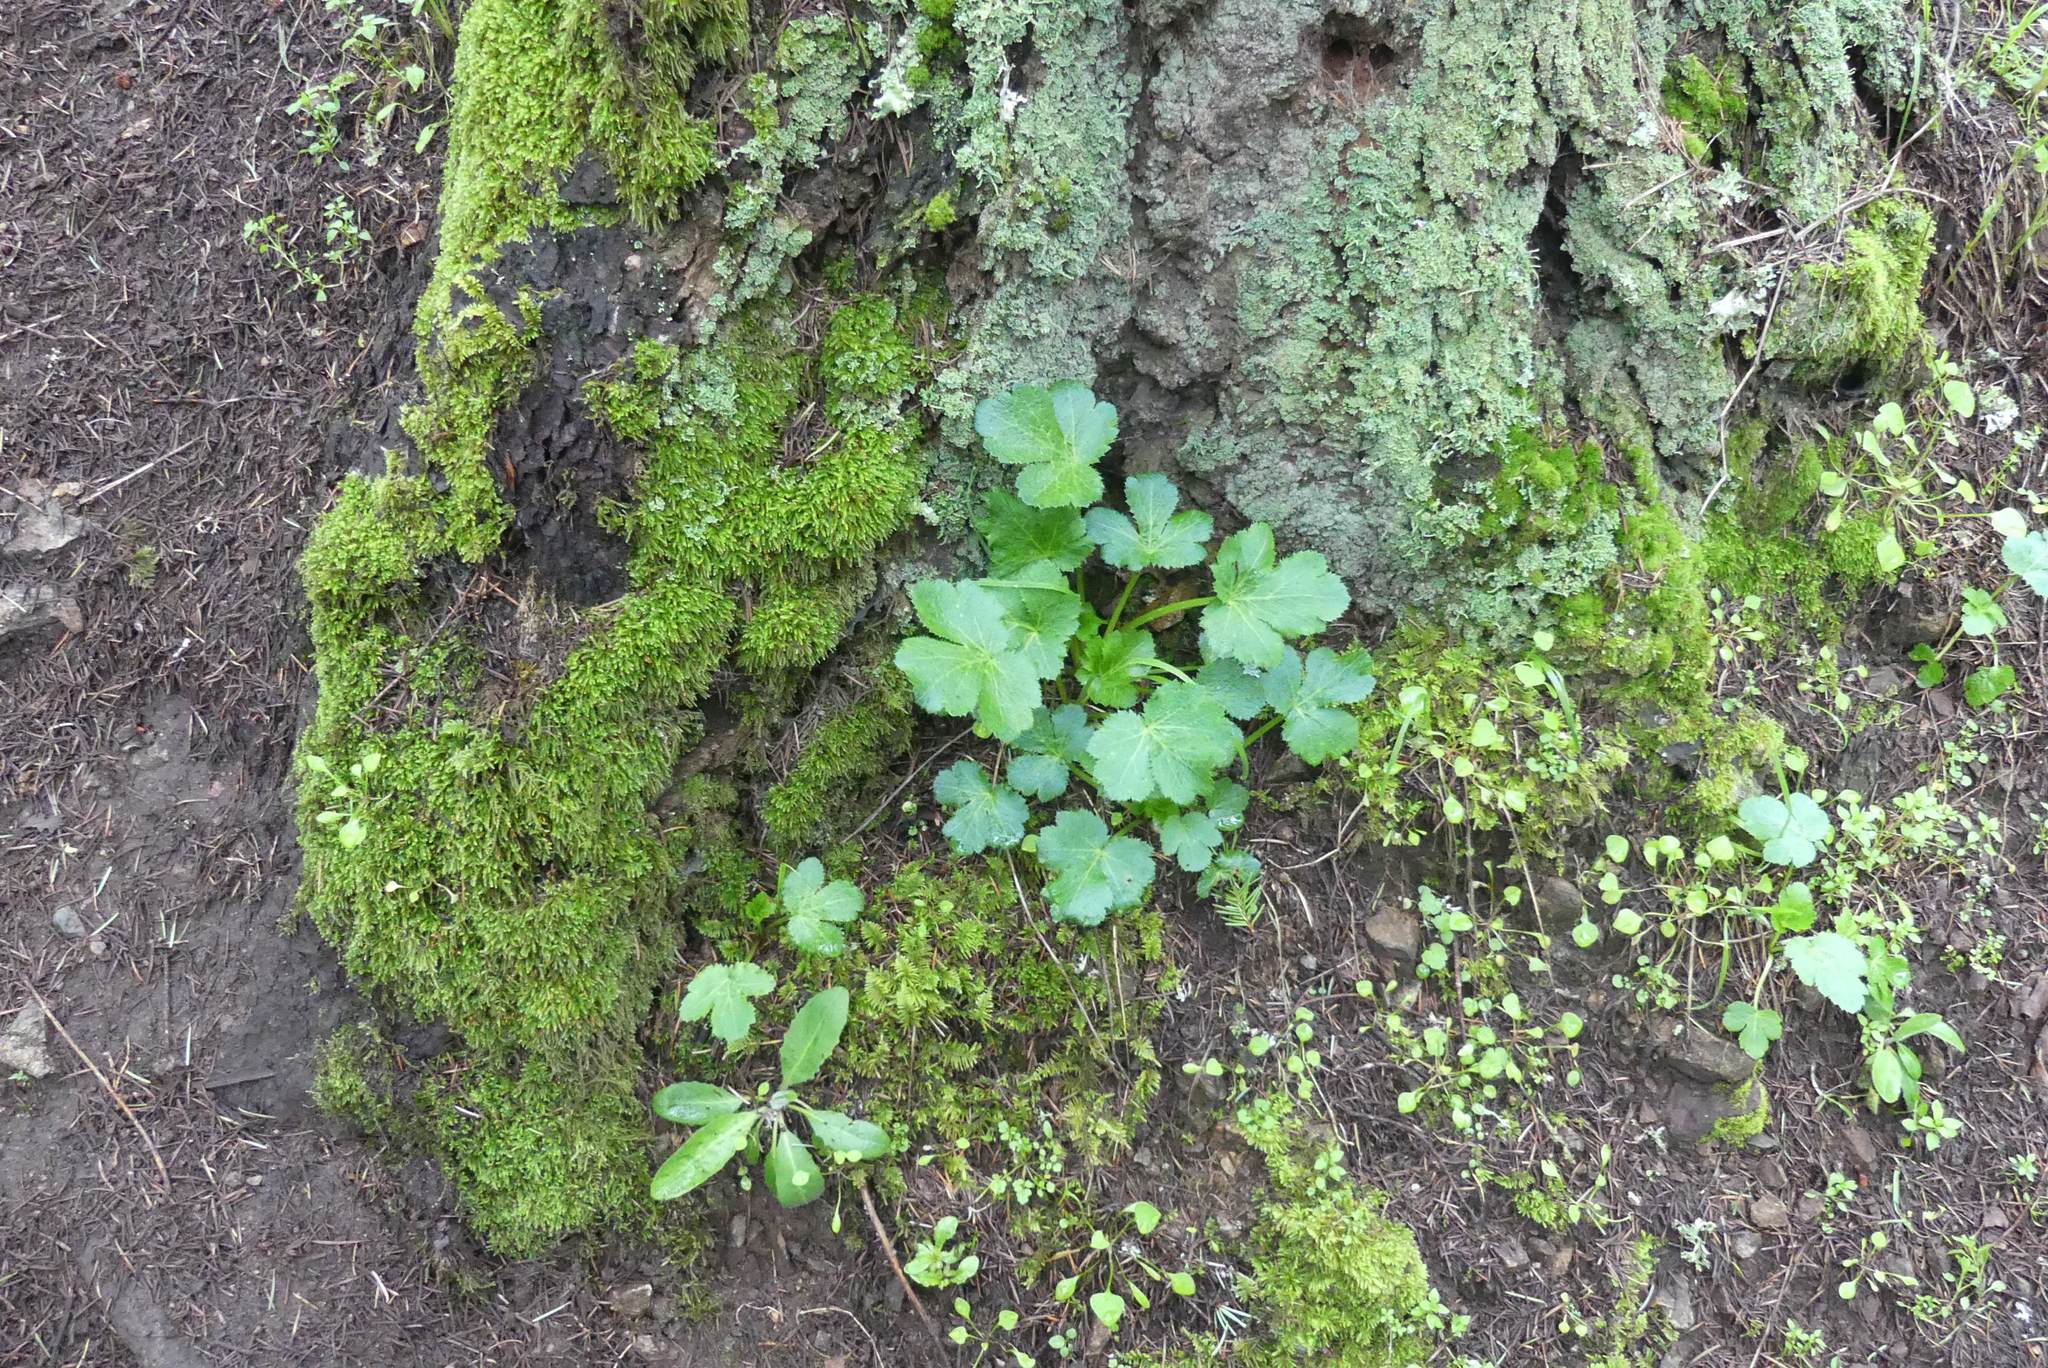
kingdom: Plantae
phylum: Tracheophyta
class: Magnoliopsida
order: Apiales
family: Apiaceae
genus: Sanicula
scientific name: Sanicula crassicaulis
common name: Western snakeroot
